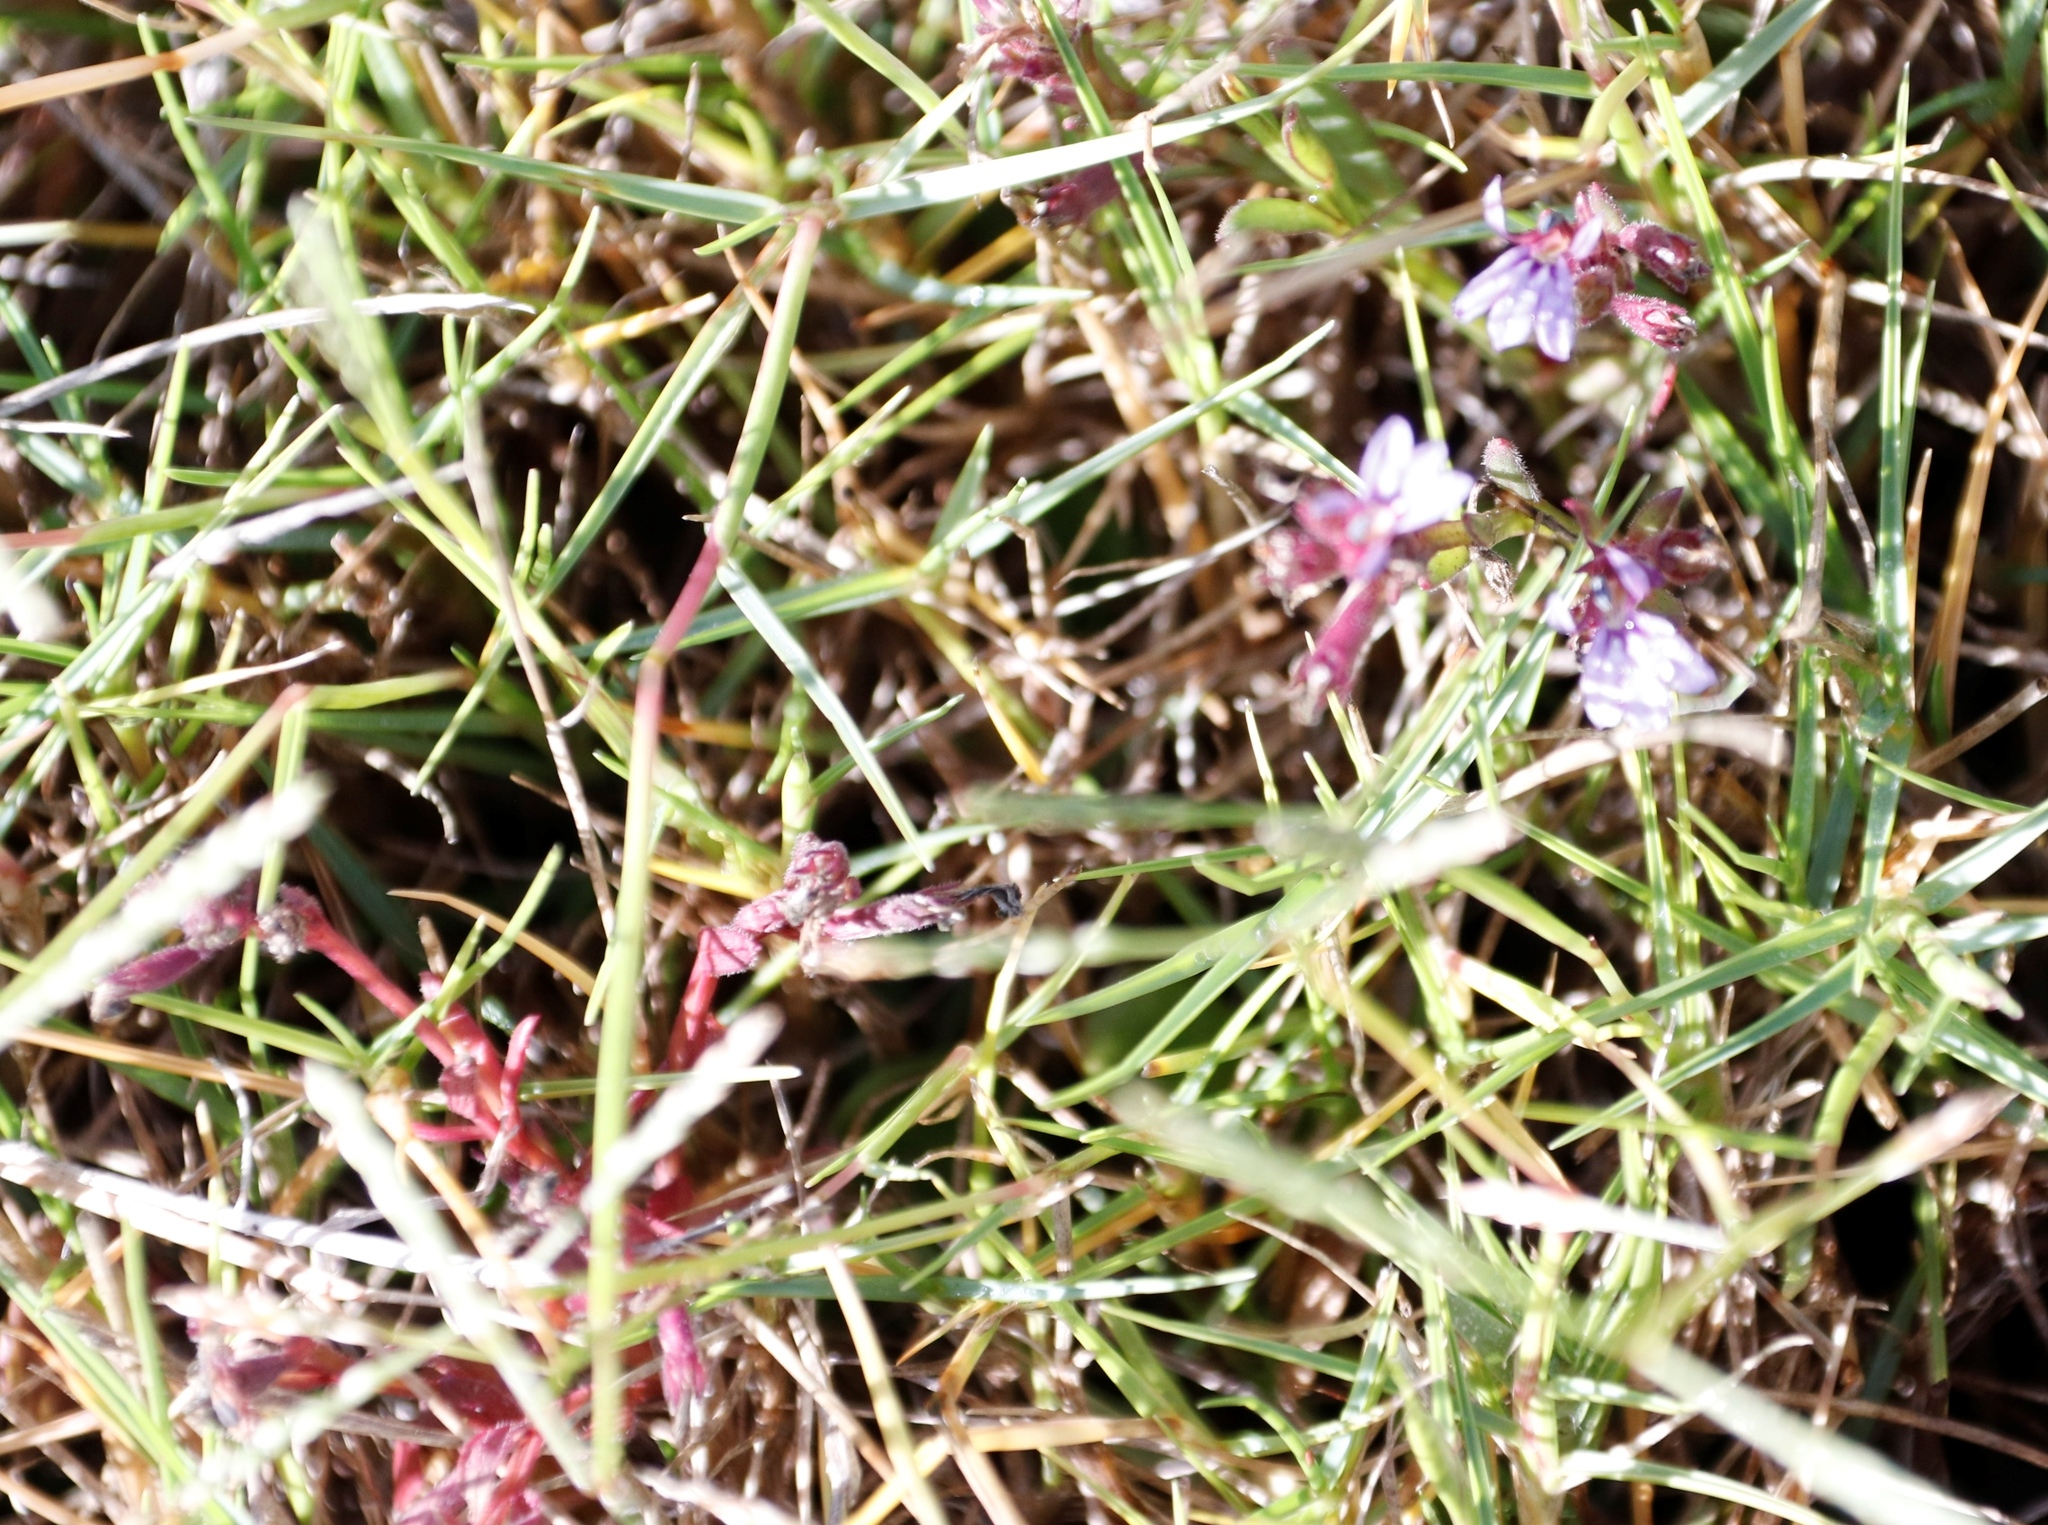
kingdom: Plantae
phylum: Tracheophyta
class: Magnoliopsida
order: Asterales
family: Campanulaceae
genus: Lobelia
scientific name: Lobelia anceps
